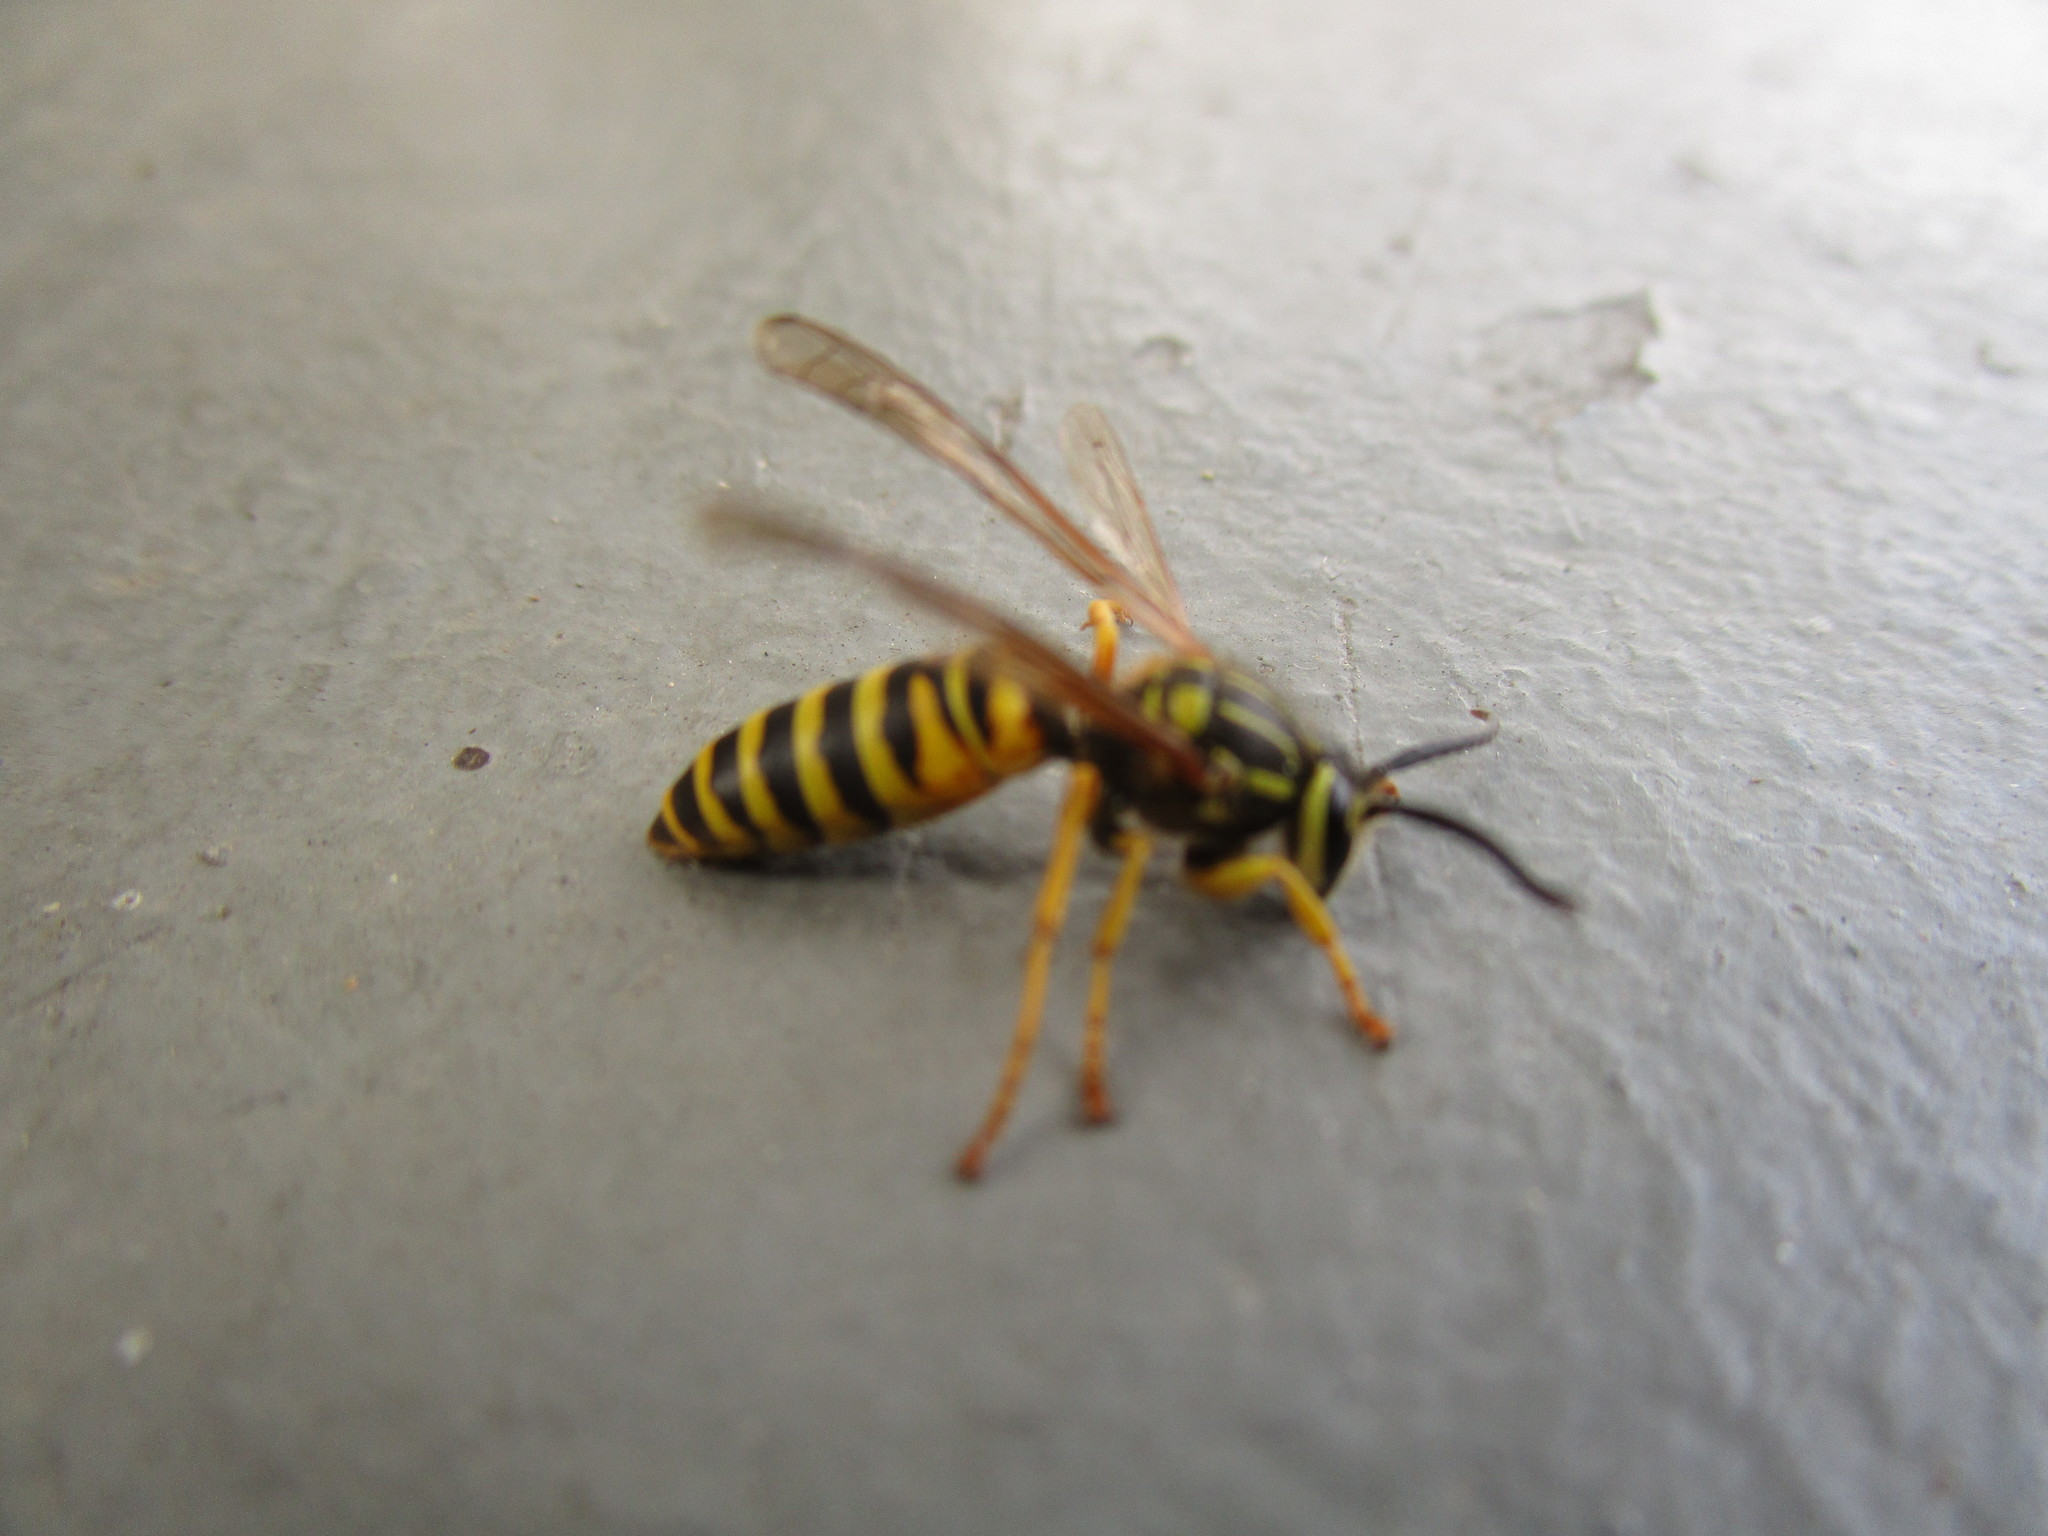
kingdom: Animalia
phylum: Arthropoda
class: Insecta
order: Hymenoptera
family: Vespidae
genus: Vespula
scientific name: Vespula squamosa
